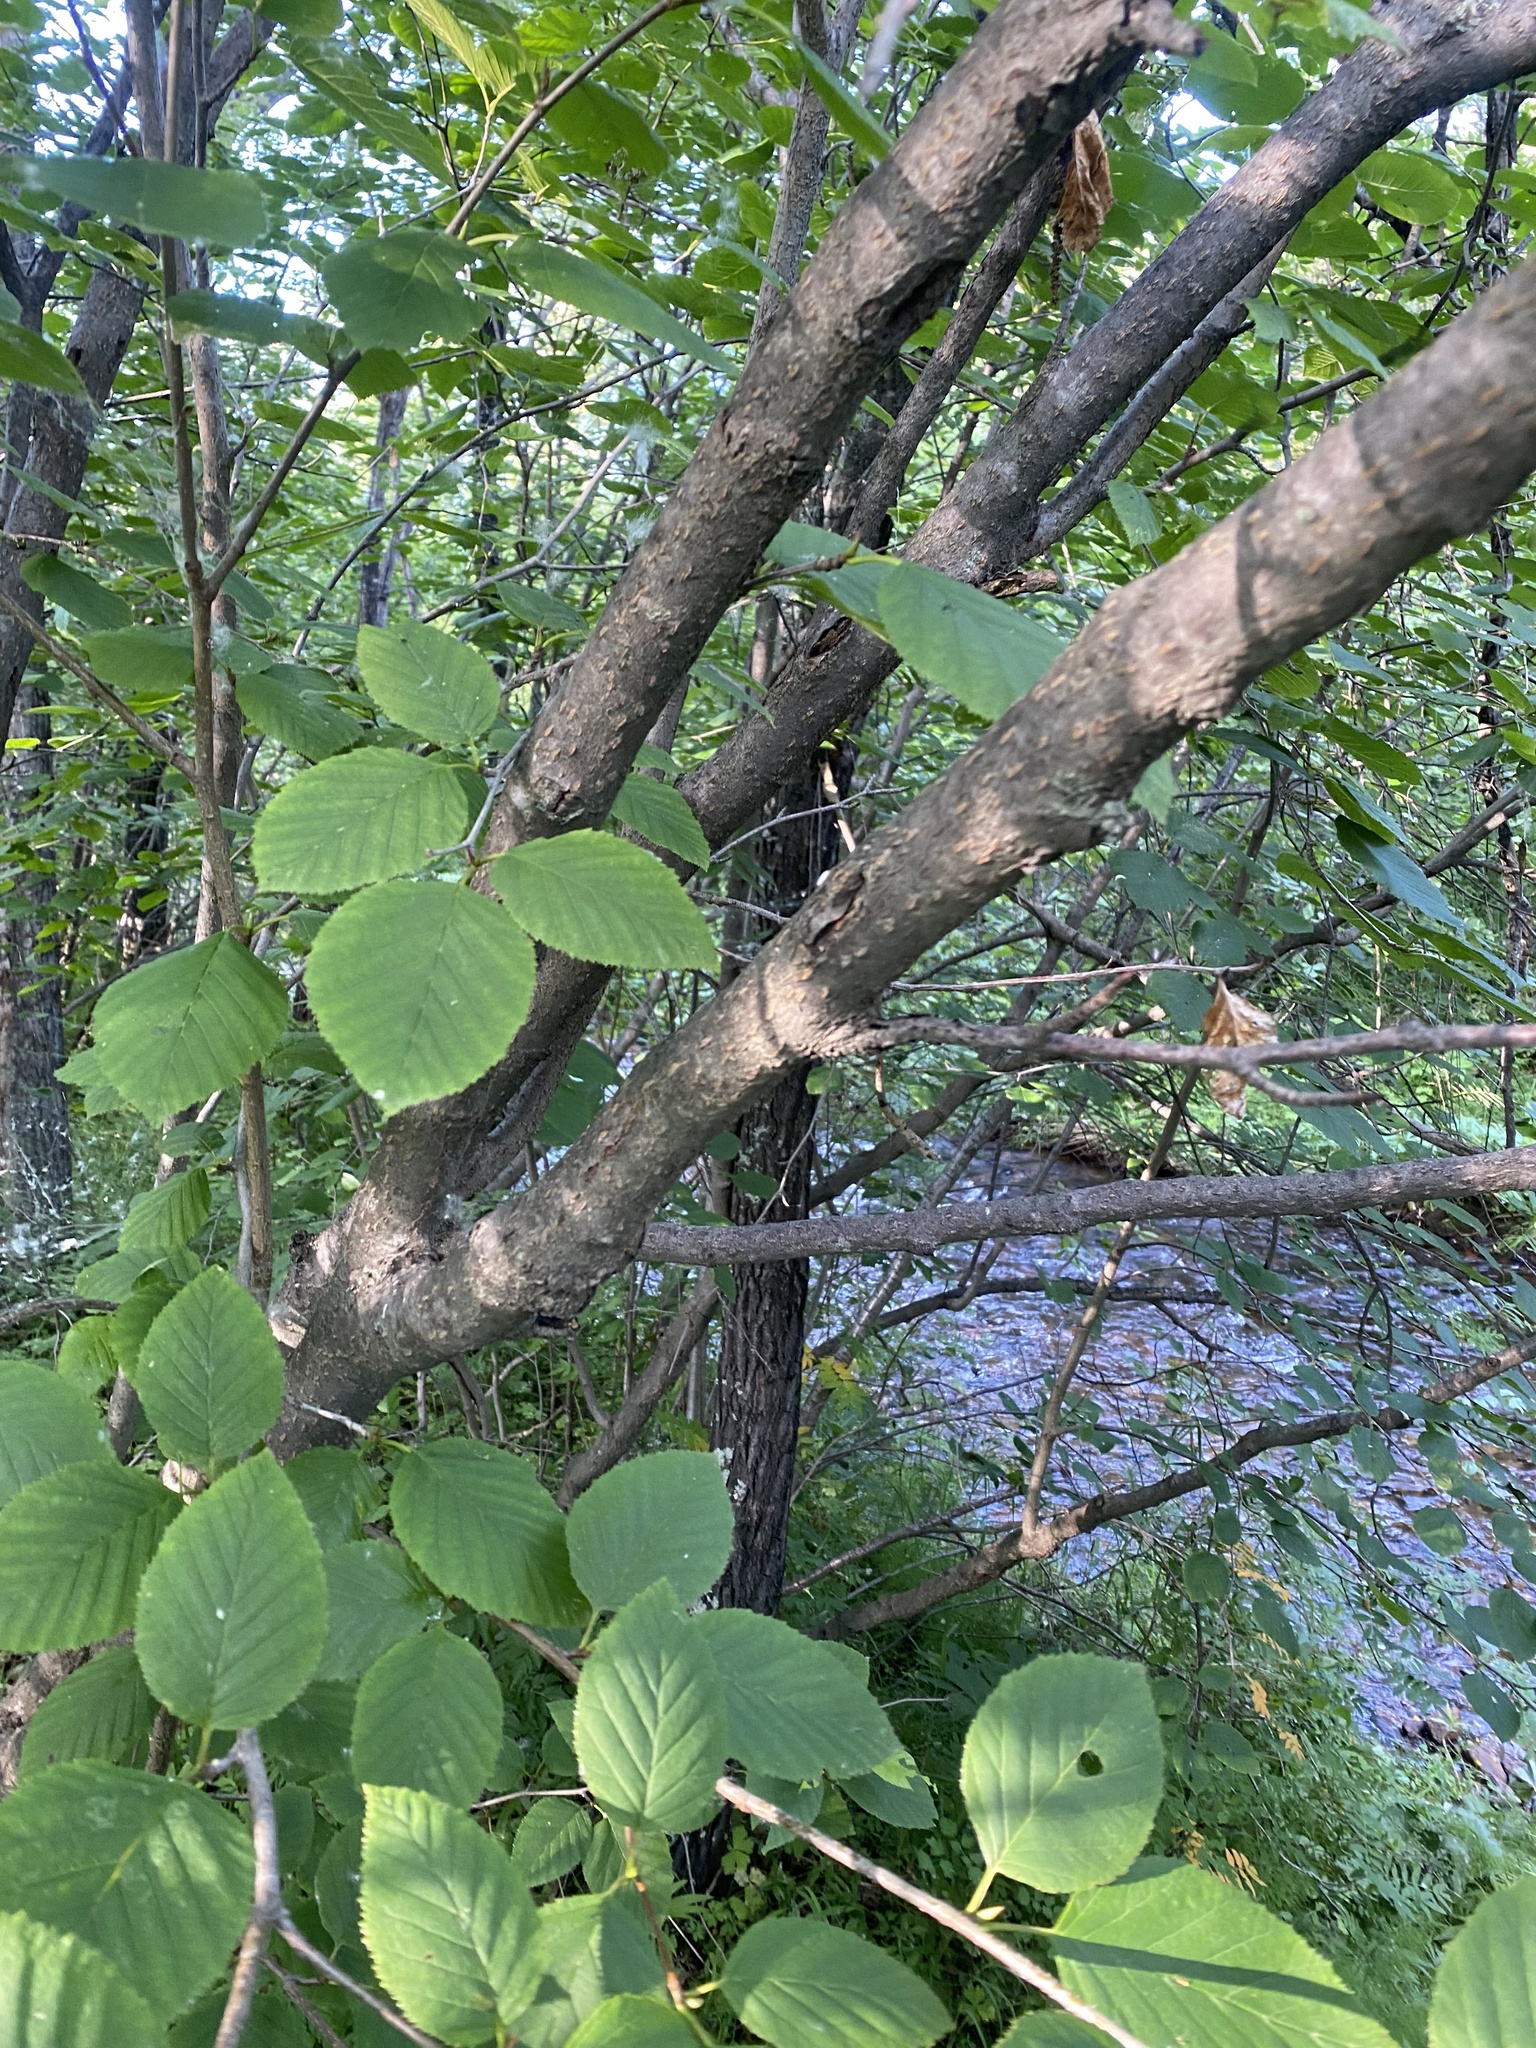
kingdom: Plantae
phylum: Tracheophyta
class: Magnoliopsida
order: Fagales
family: Betulaceae
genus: Alnus
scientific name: Alnus alnobetula
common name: Green alder
